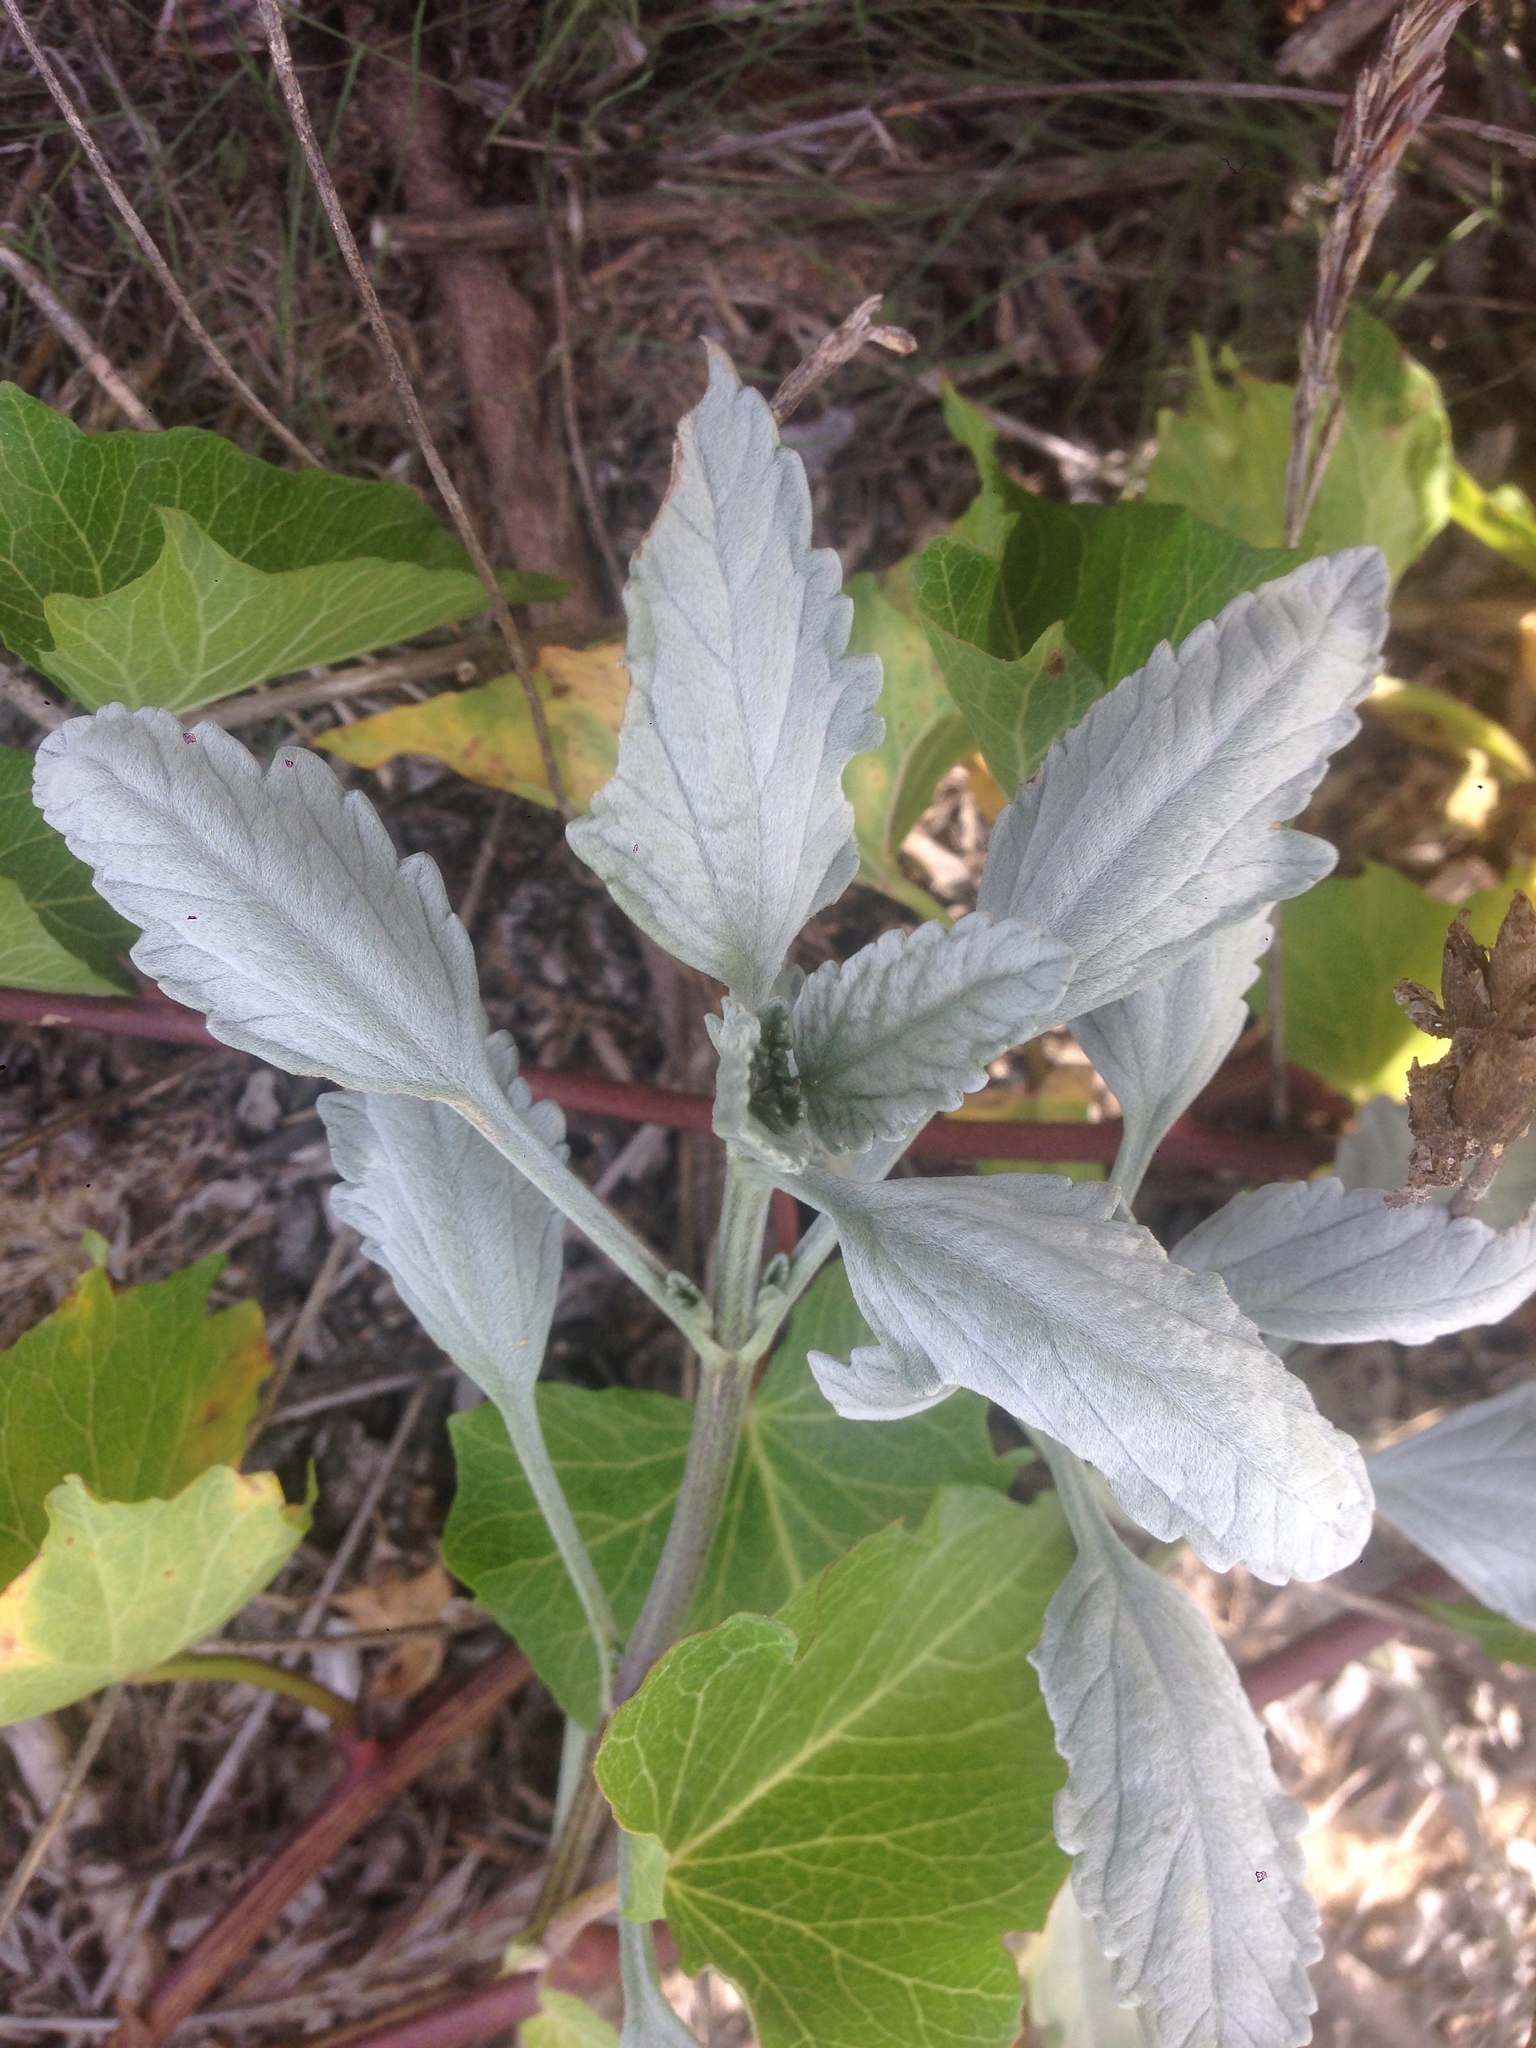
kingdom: Plantae
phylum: Tracheophyta
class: Magnoliopsida
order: Asterales
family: Asteraceae
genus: Ambrosia
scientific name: Ambrosia chamissonis
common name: Beachbur
